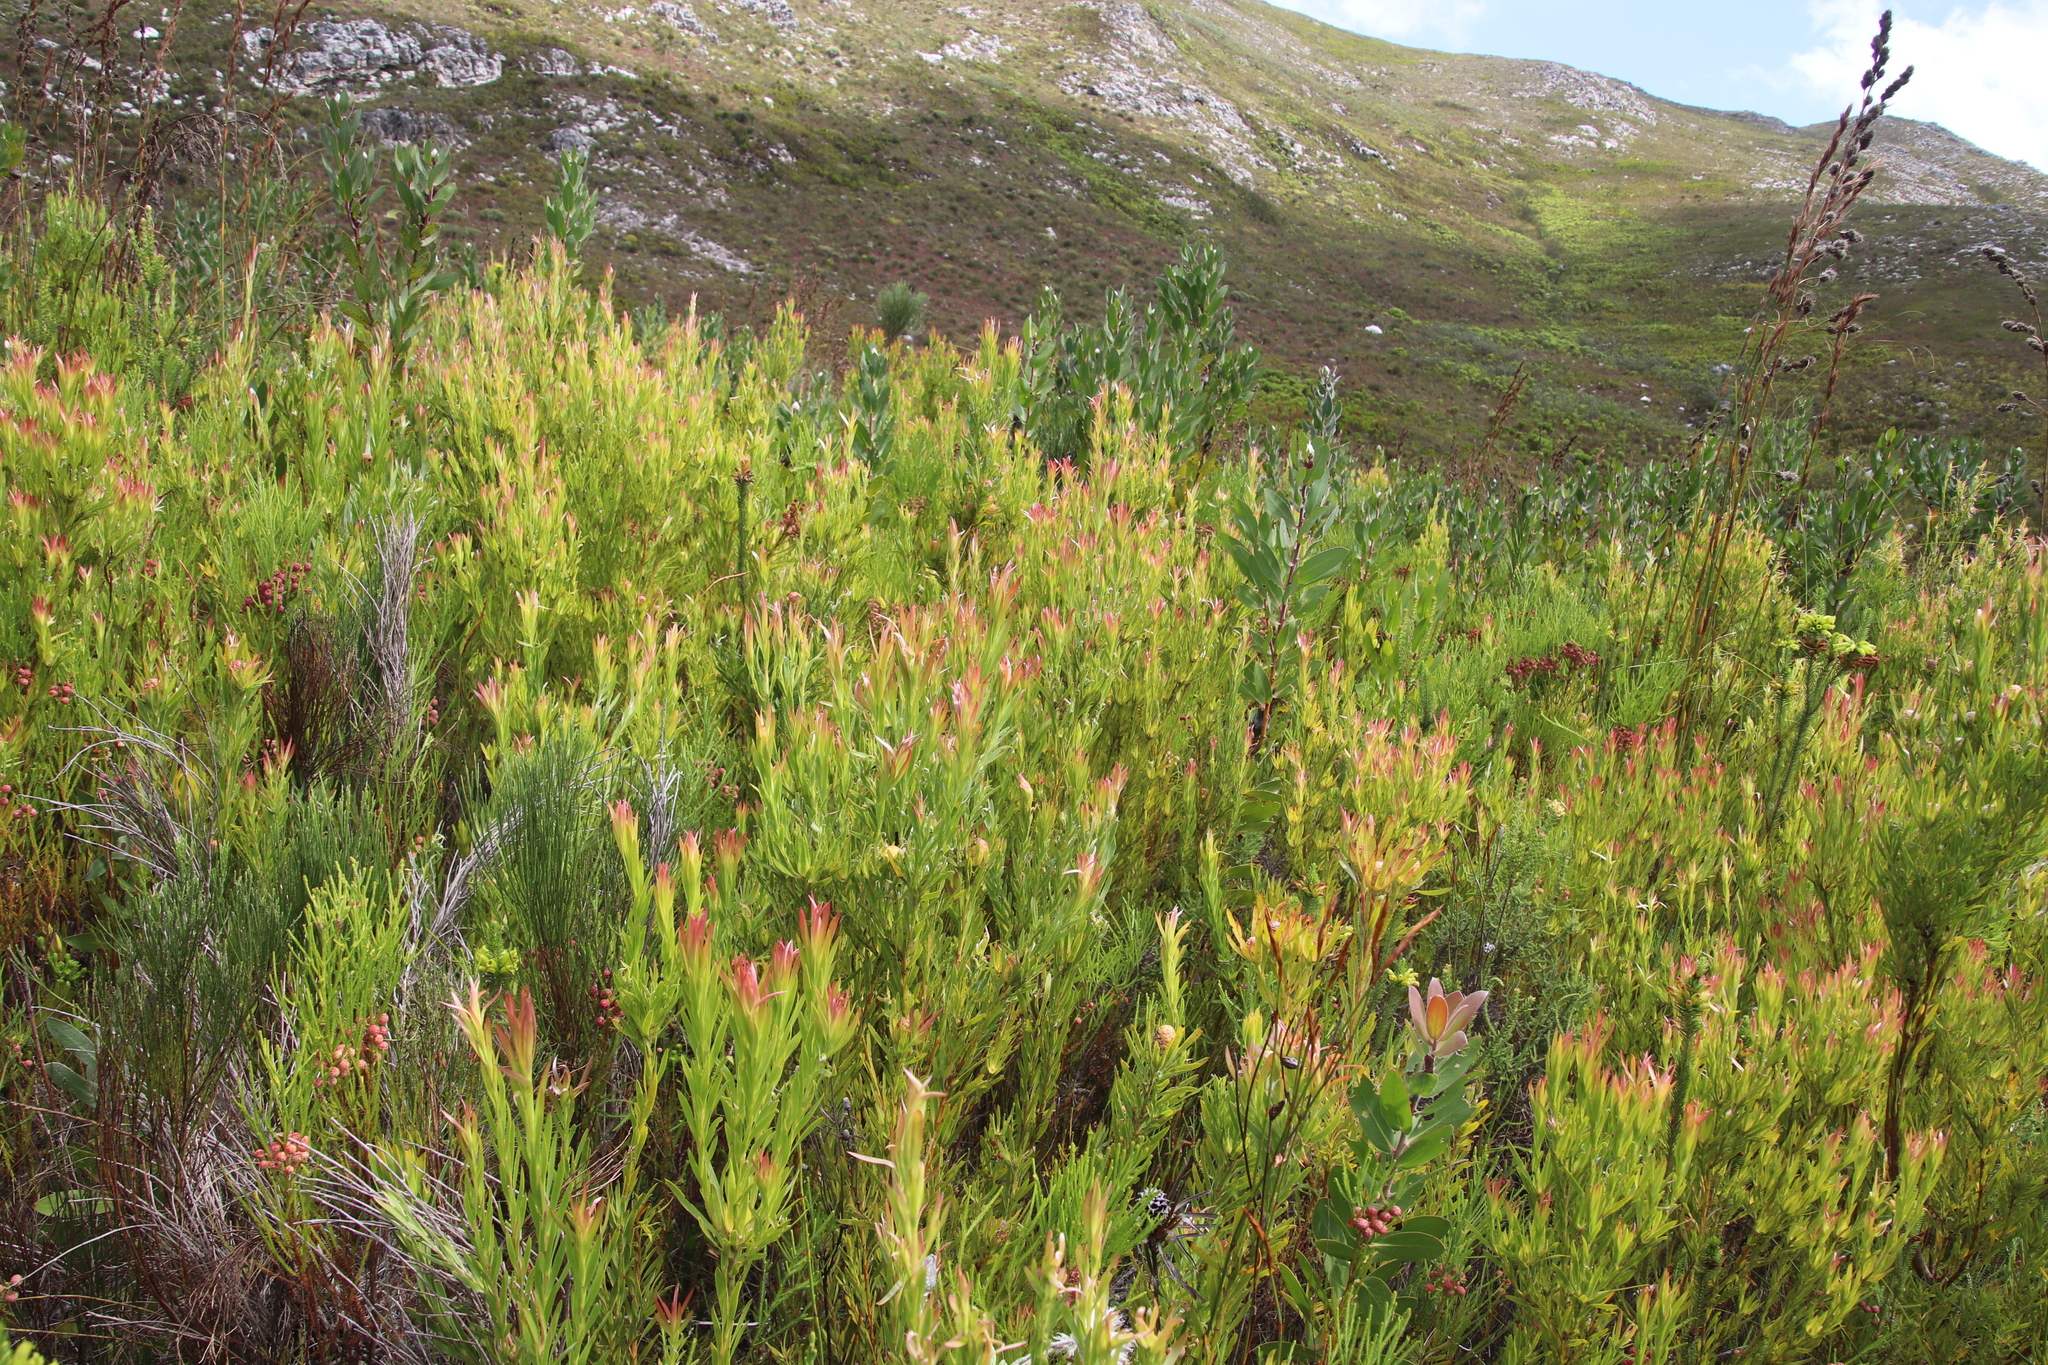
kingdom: Plantae
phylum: Tracheophyta
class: Magnoliopsida
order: Proteales
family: Proteaceae
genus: Leucadendron
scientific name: Leucadendron xanthoconus
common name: Sickle-leaf conebush
